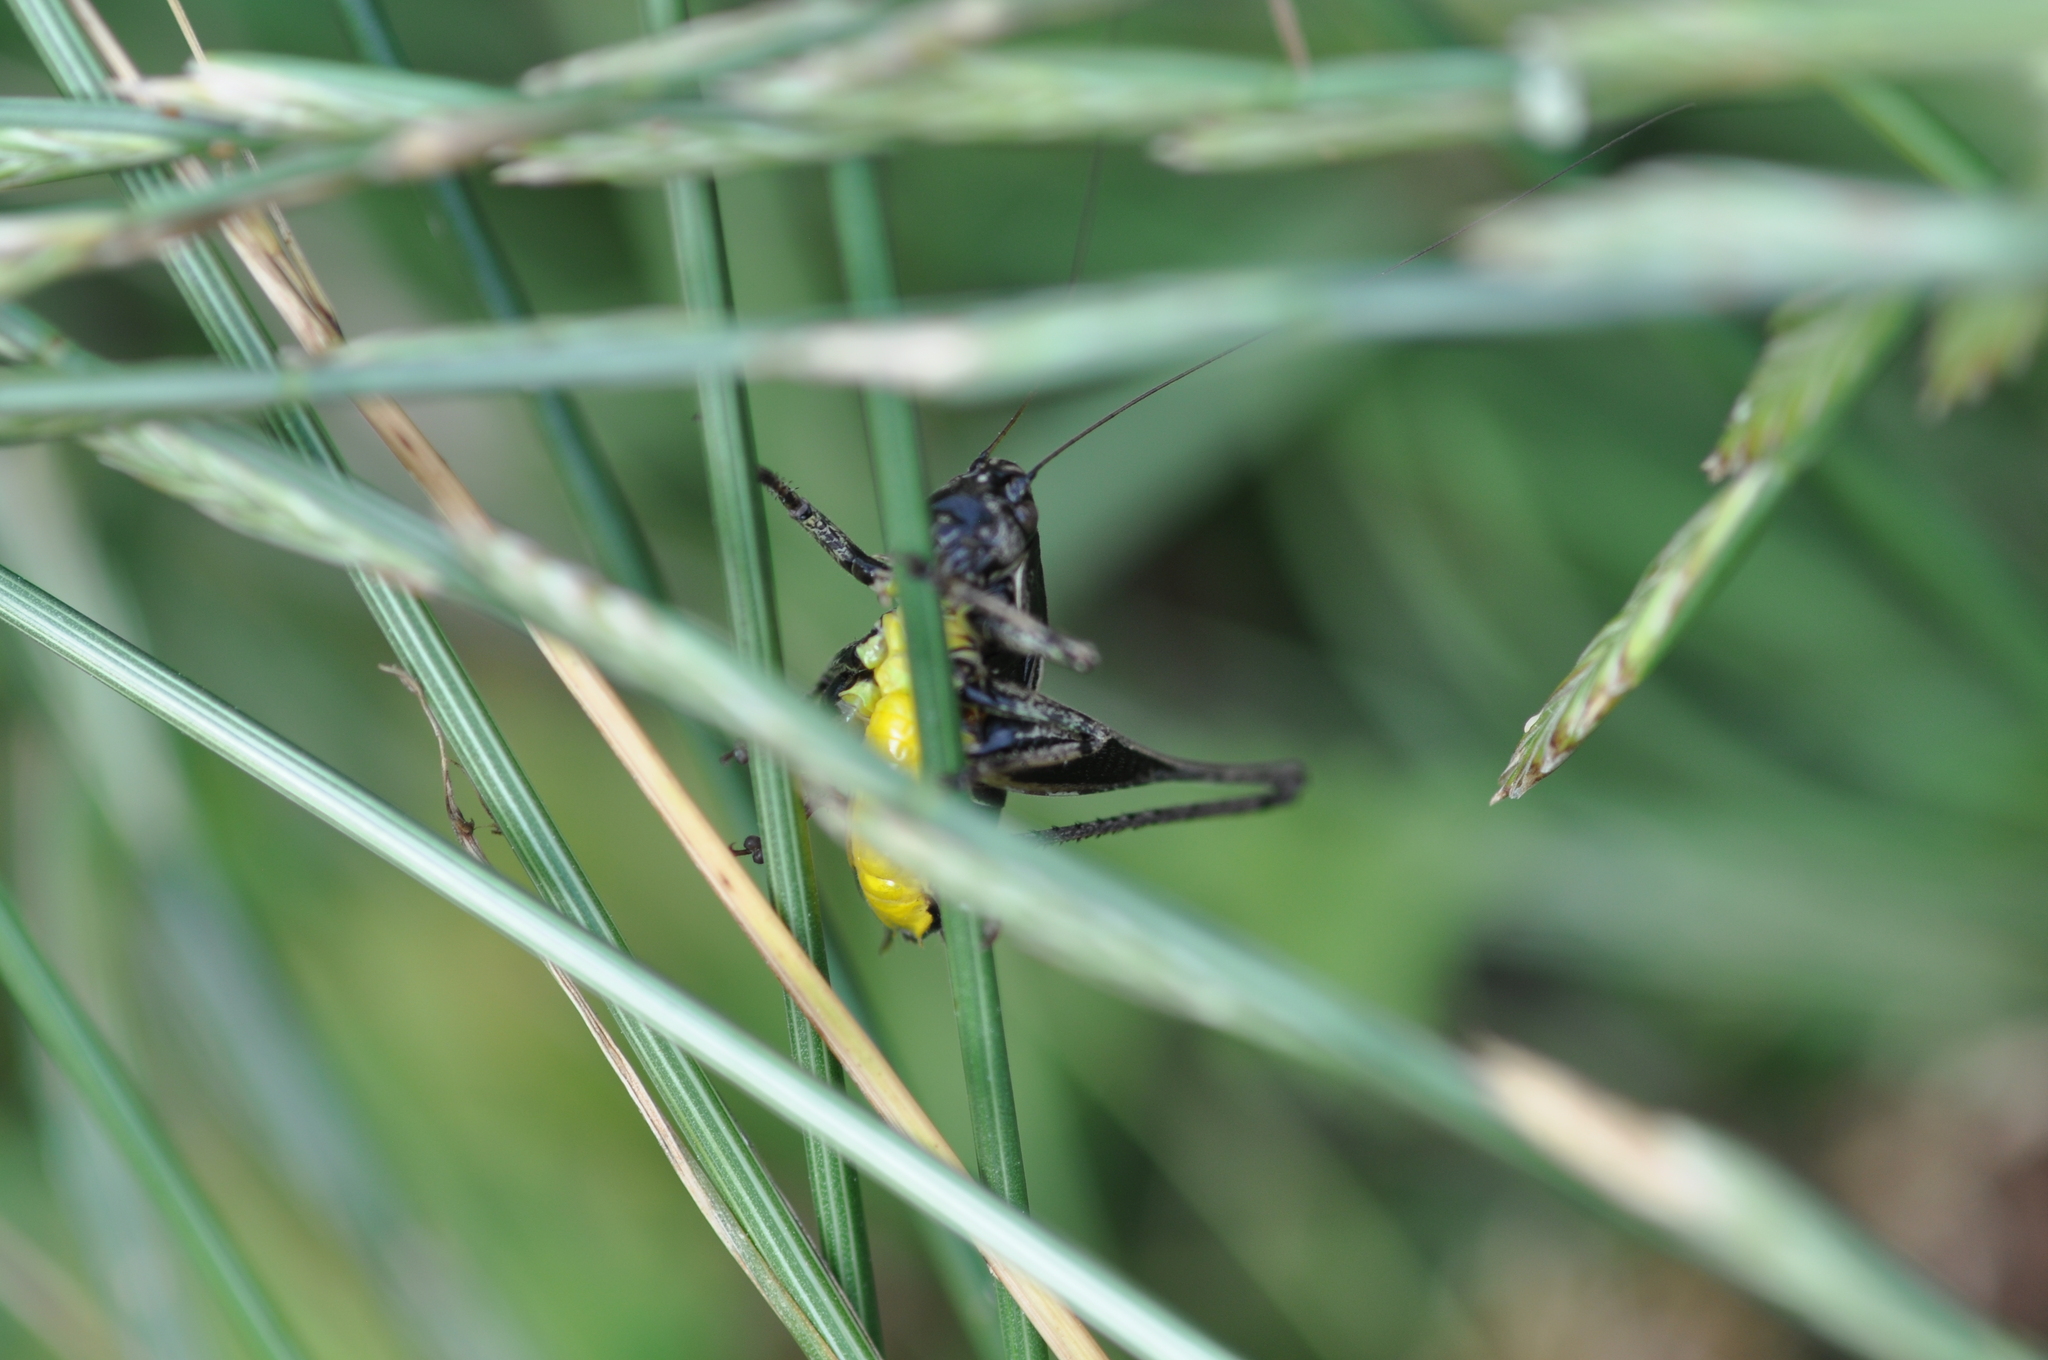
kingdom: Animalia
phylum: Arthropoda
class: Insecta
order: Orthoptera
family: Tettigoniidae
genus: Pholidoptera
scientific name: Pholidoptera griseoaptera
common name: Dark bush-cricket
